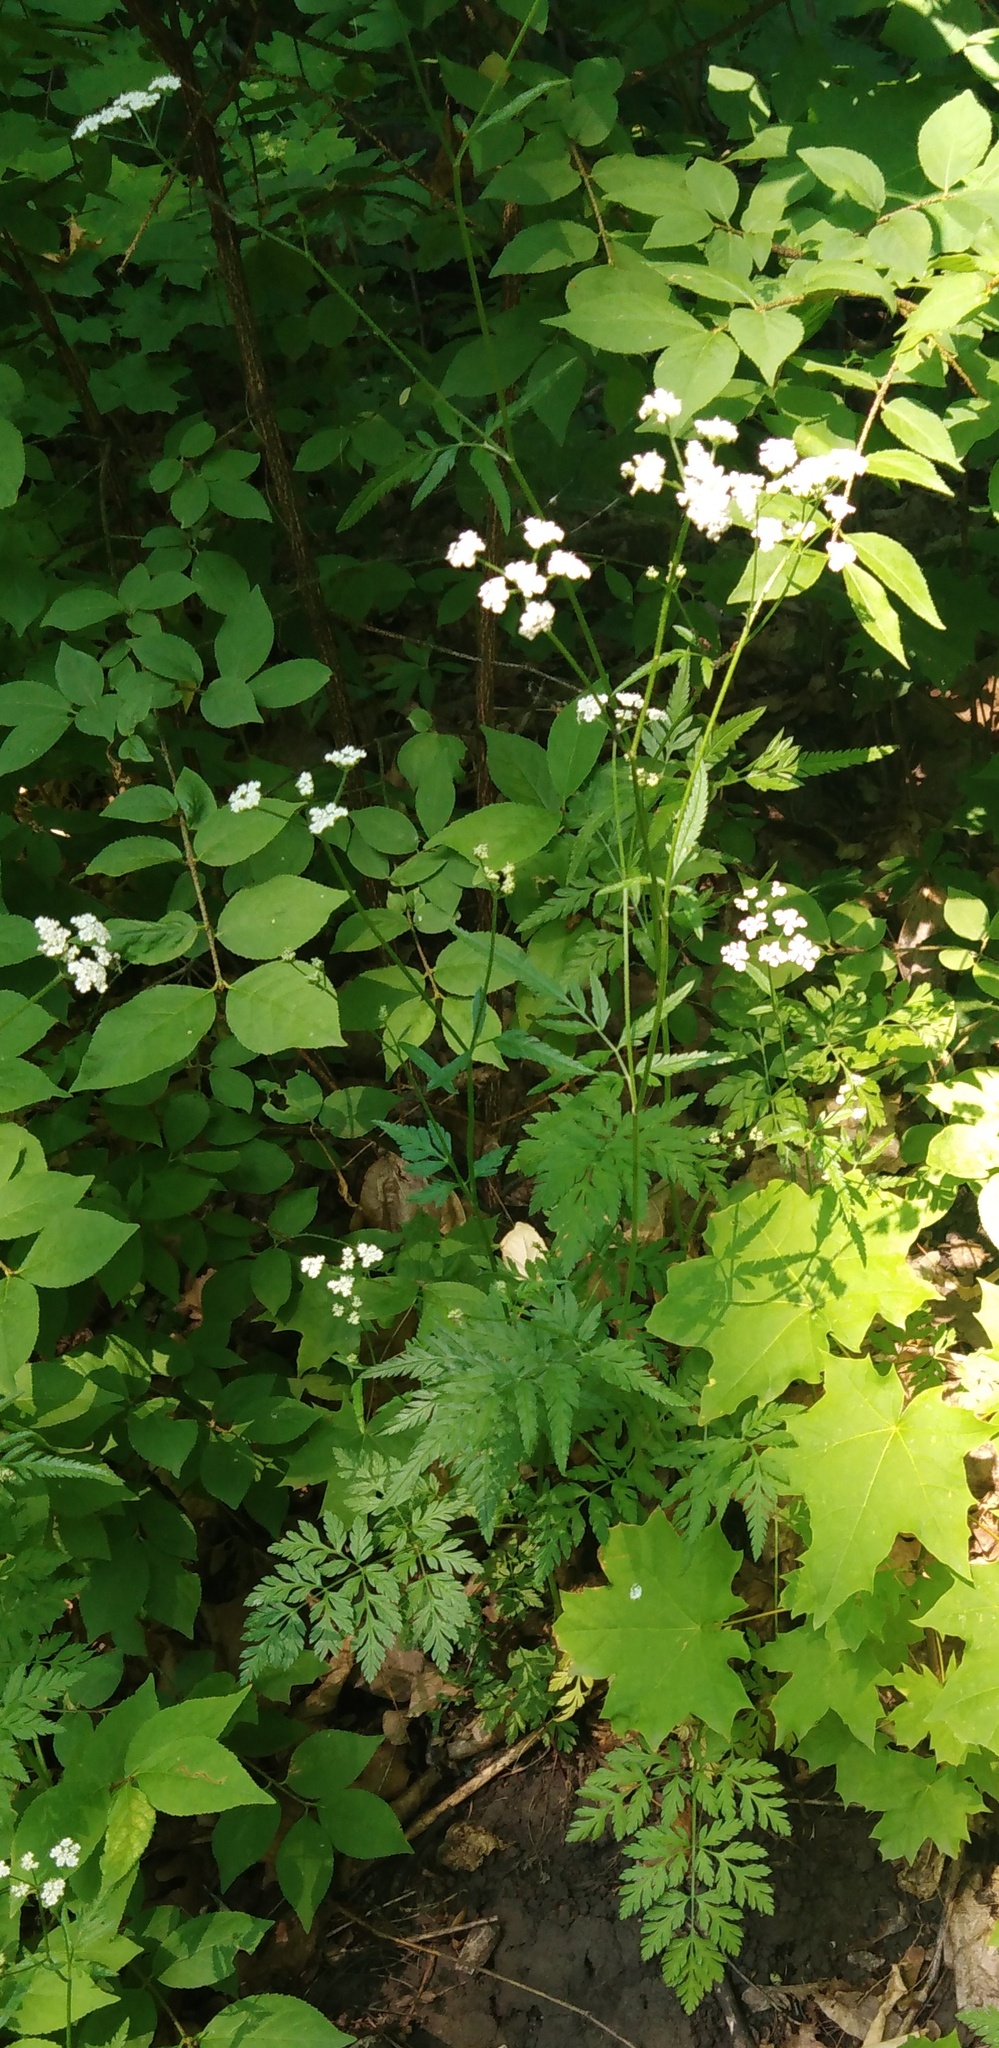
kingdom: Plantae
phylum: Tracheophyta
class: Magnoliopsida
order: Apiales
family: Apiaceae
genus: Torilis
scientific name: Torilis japonica
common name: Upright hedge-parsley
